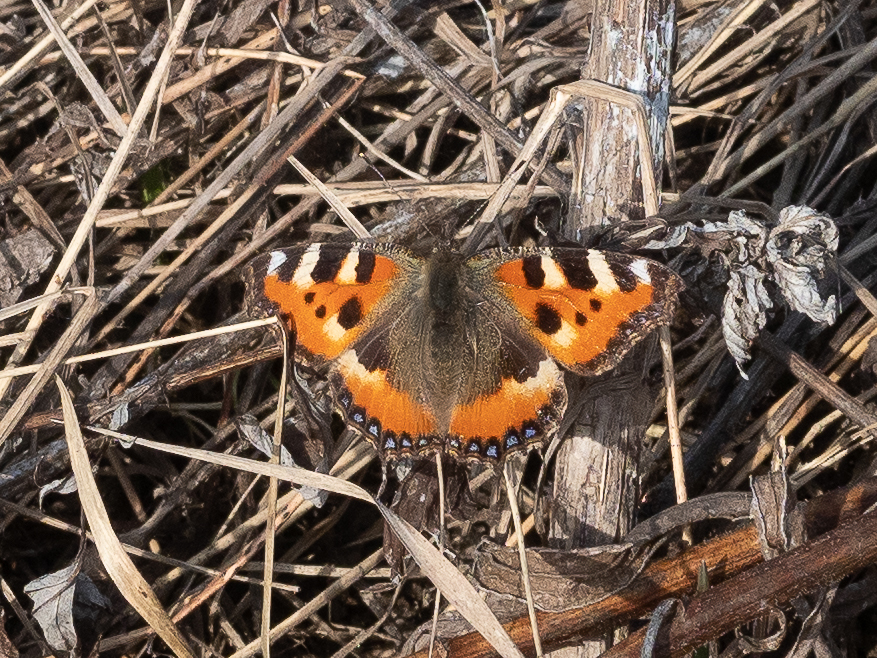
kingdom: Animalia
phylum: Arthropoda
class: Insecta
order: Lepidoptera
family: Nymphalidae
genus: Aglais
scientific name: Aglais urticae
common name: Small tortoiseshell
